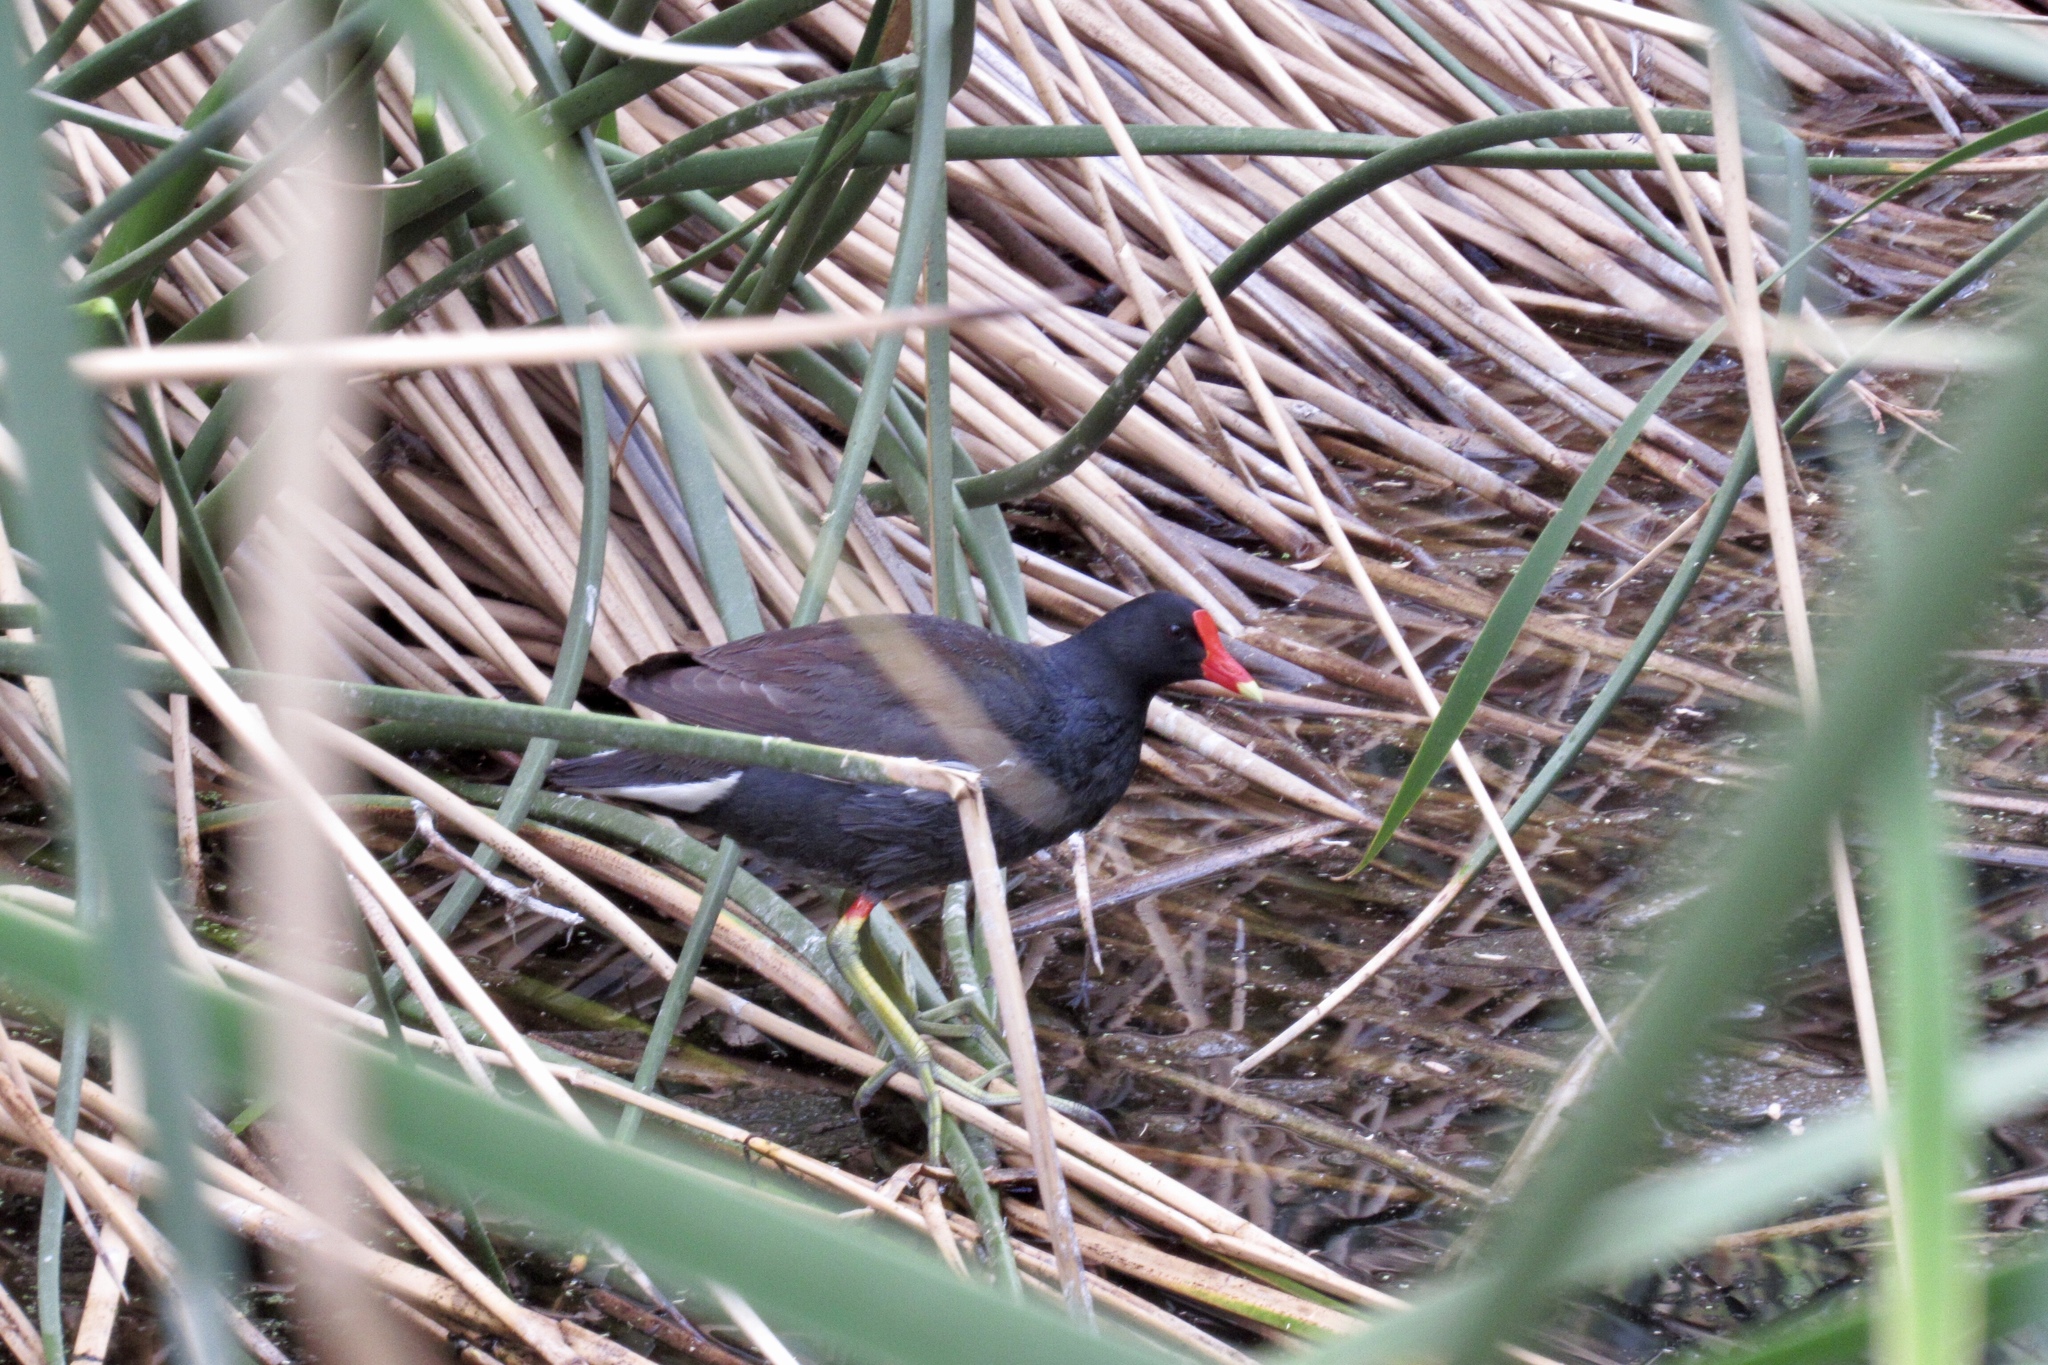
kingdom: Animalia
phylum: Chordata
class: Aves
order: Gruiformes
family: Rallidae
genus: Gallinula
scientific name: Gallinula chloropus
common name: Common moorhen
